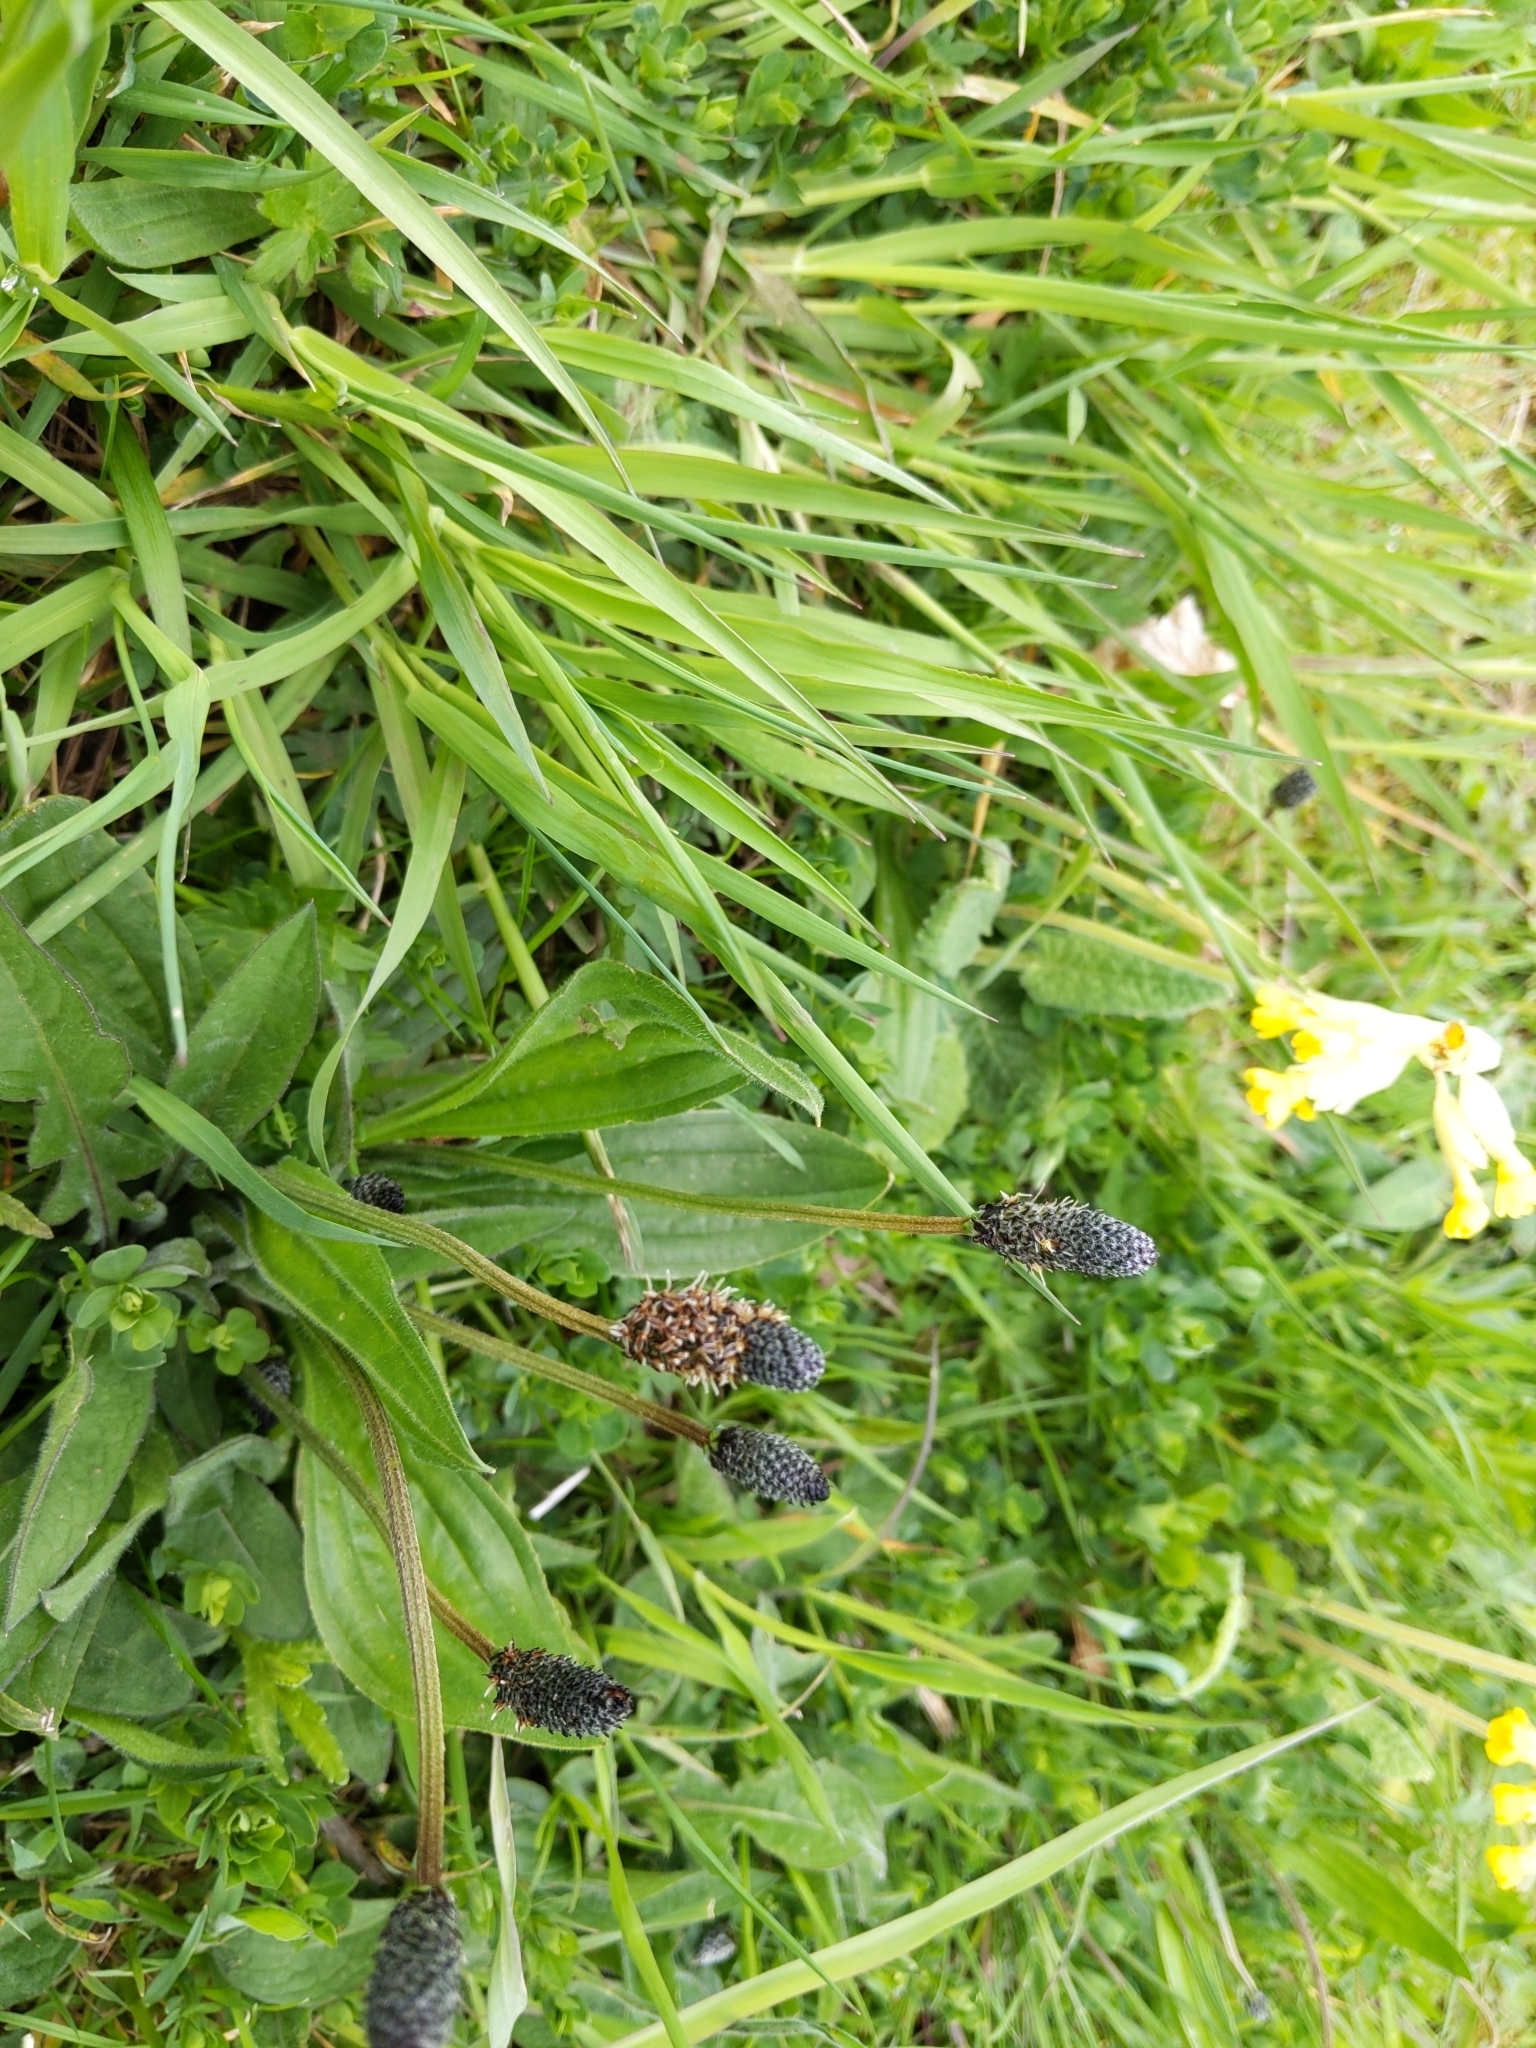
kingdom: Plantae
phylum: Tracheophyta
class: Magnoliopsida
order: Lamiales
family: Plantaginaceae
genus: Plantago
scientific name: Plantago lanceolata
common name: Ribwort plantain
